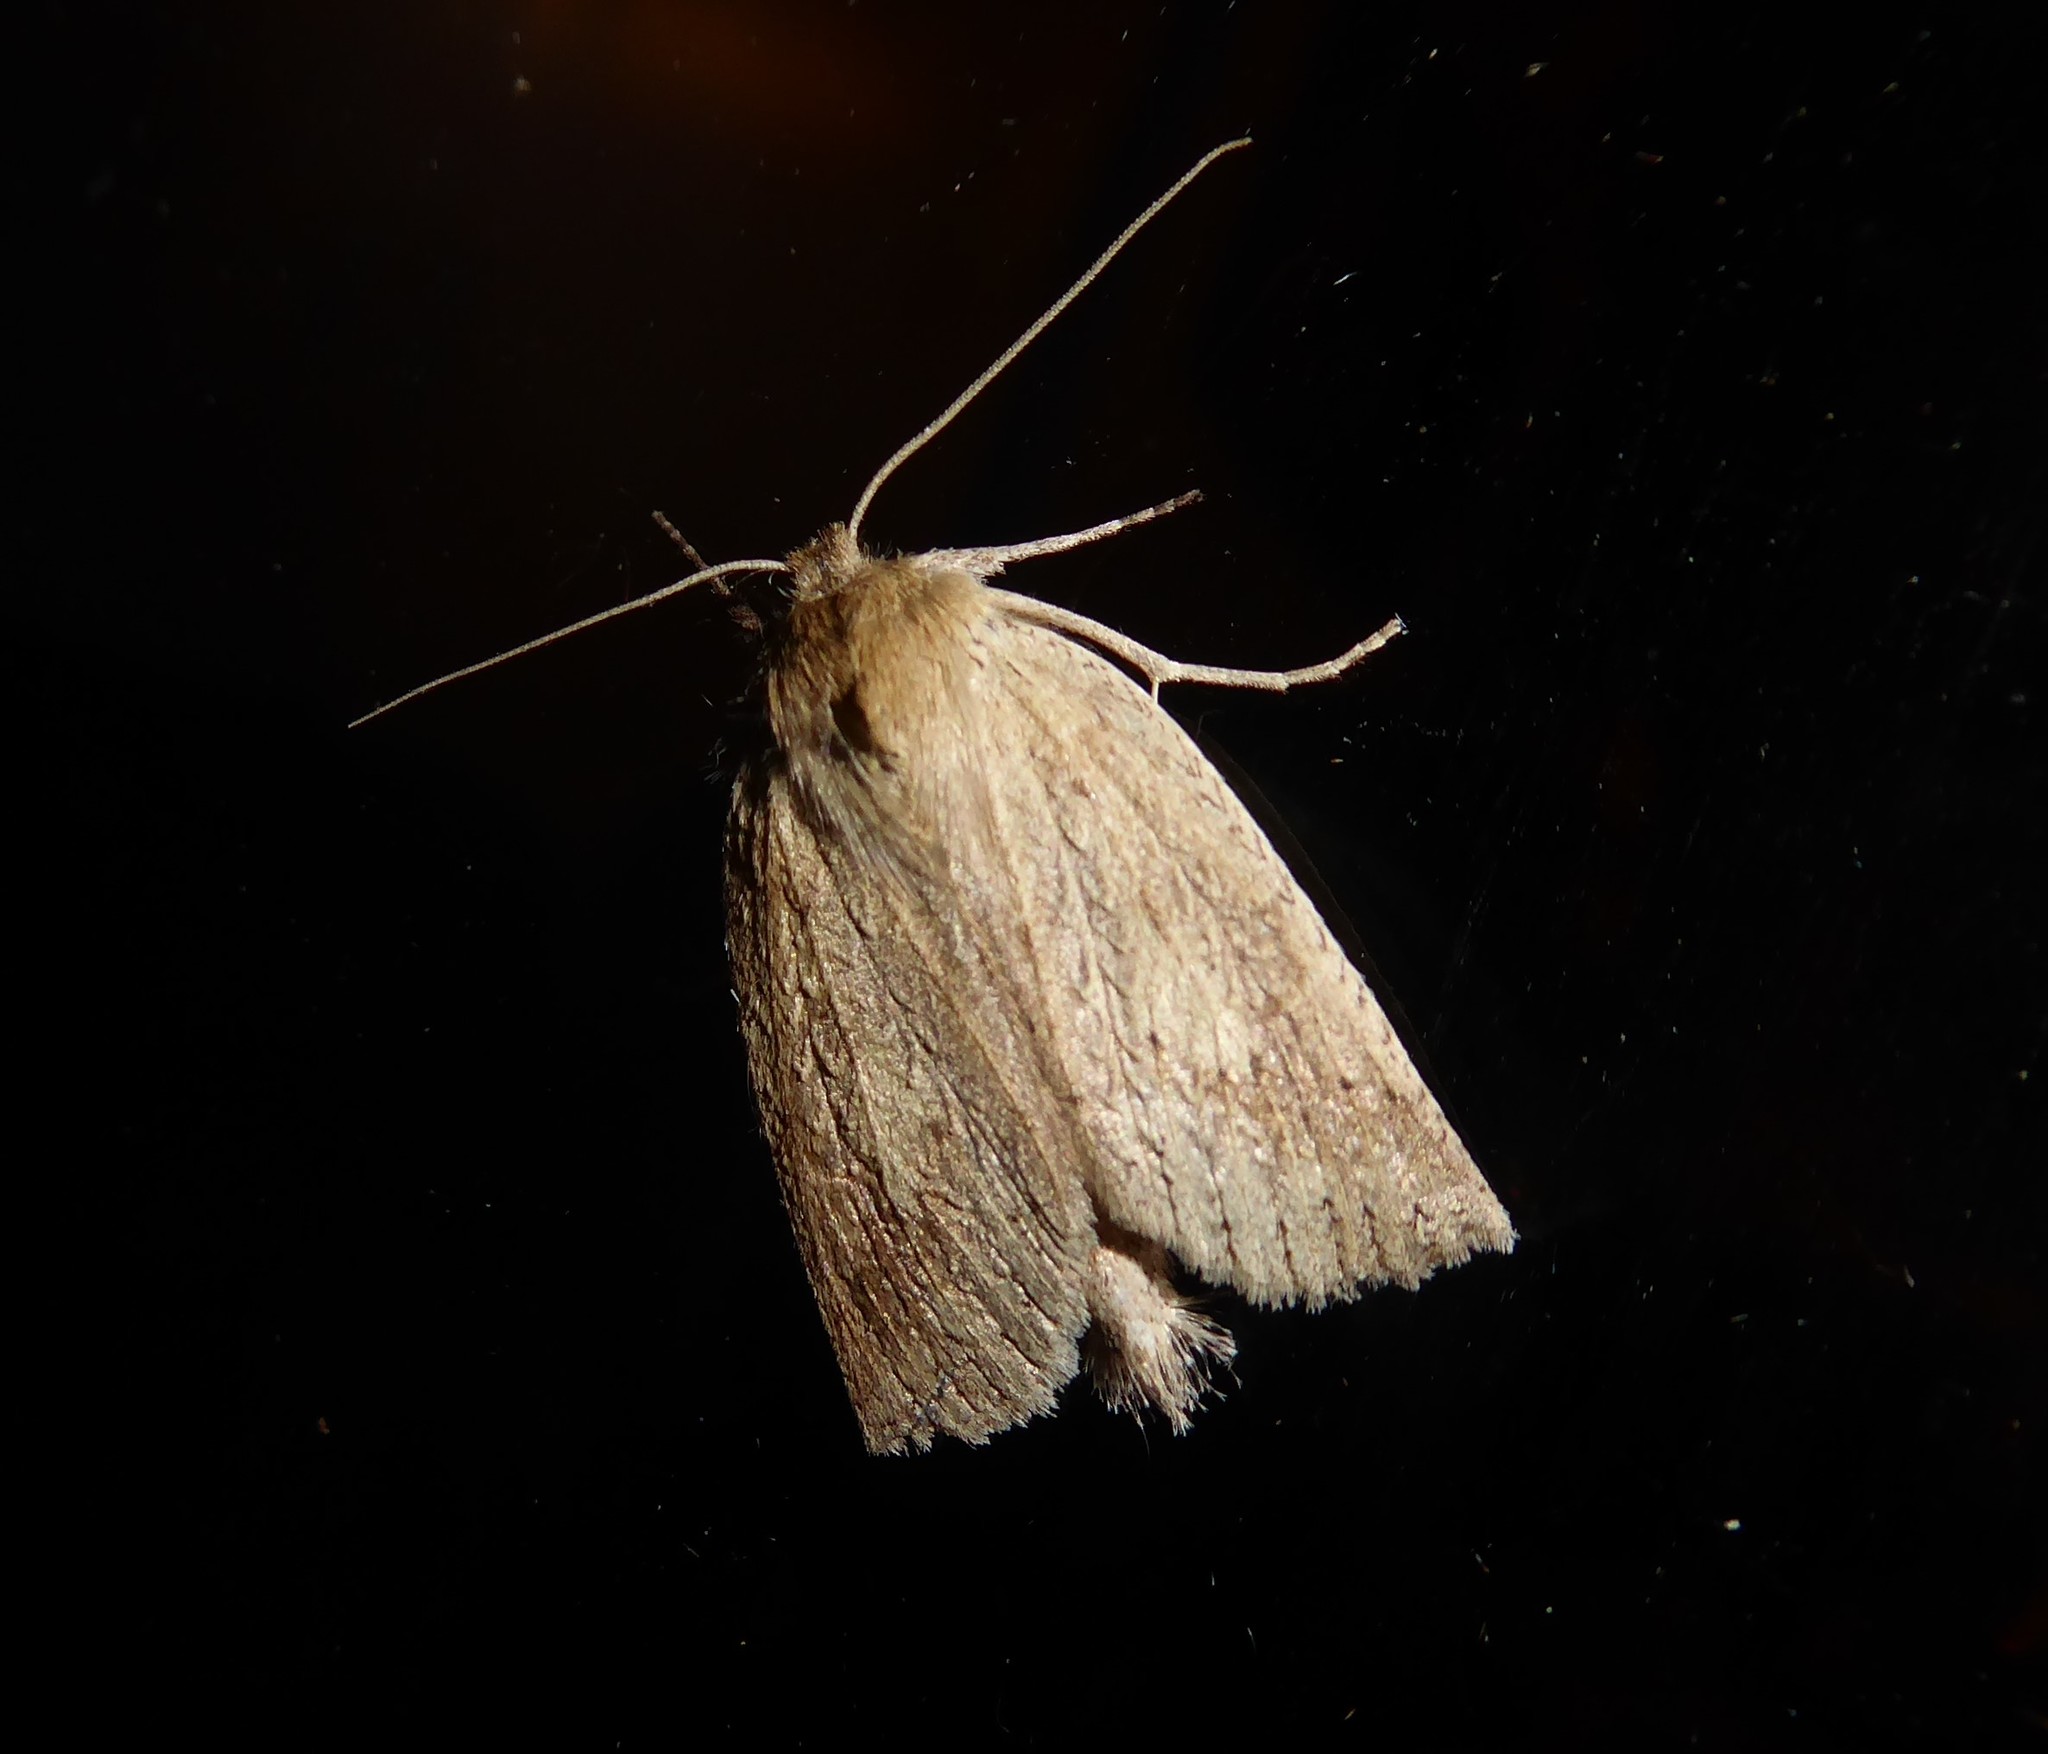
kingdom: Animalia
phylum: Arthropoda
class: Insecta
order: Lepidoptera
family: Geometridae
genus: Declana
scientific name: Declana leptomera
